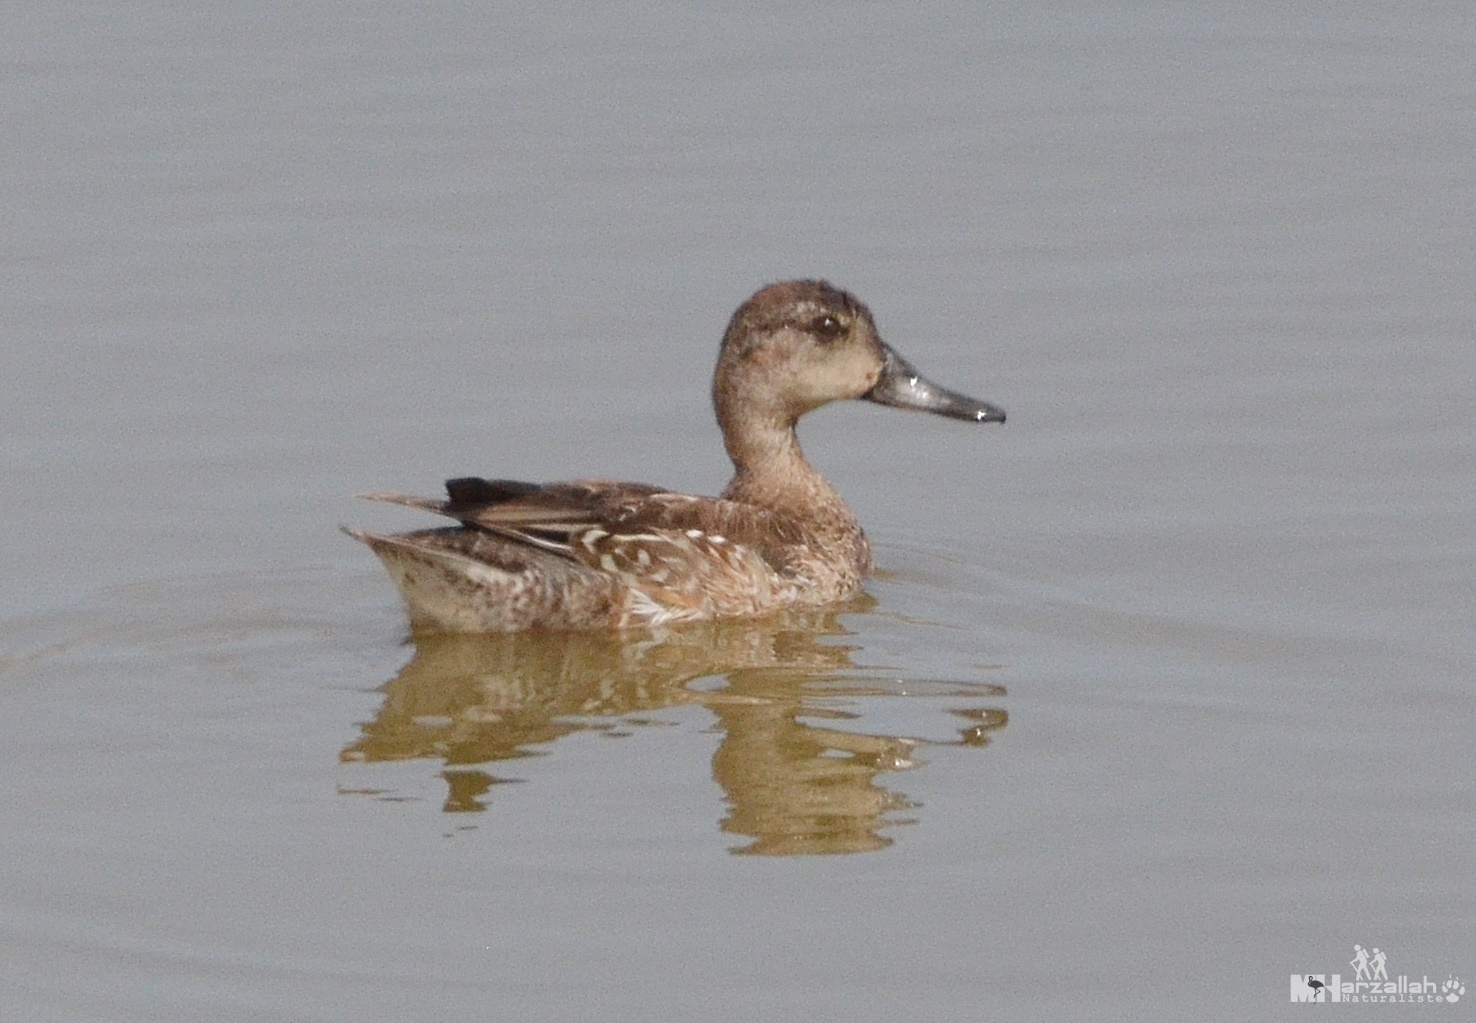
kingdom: Animalia
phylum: Chordata
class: Aves
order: Anseriformes
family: Anatidae
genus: Spatula
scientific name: Spatula querquedula
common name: Garganey
